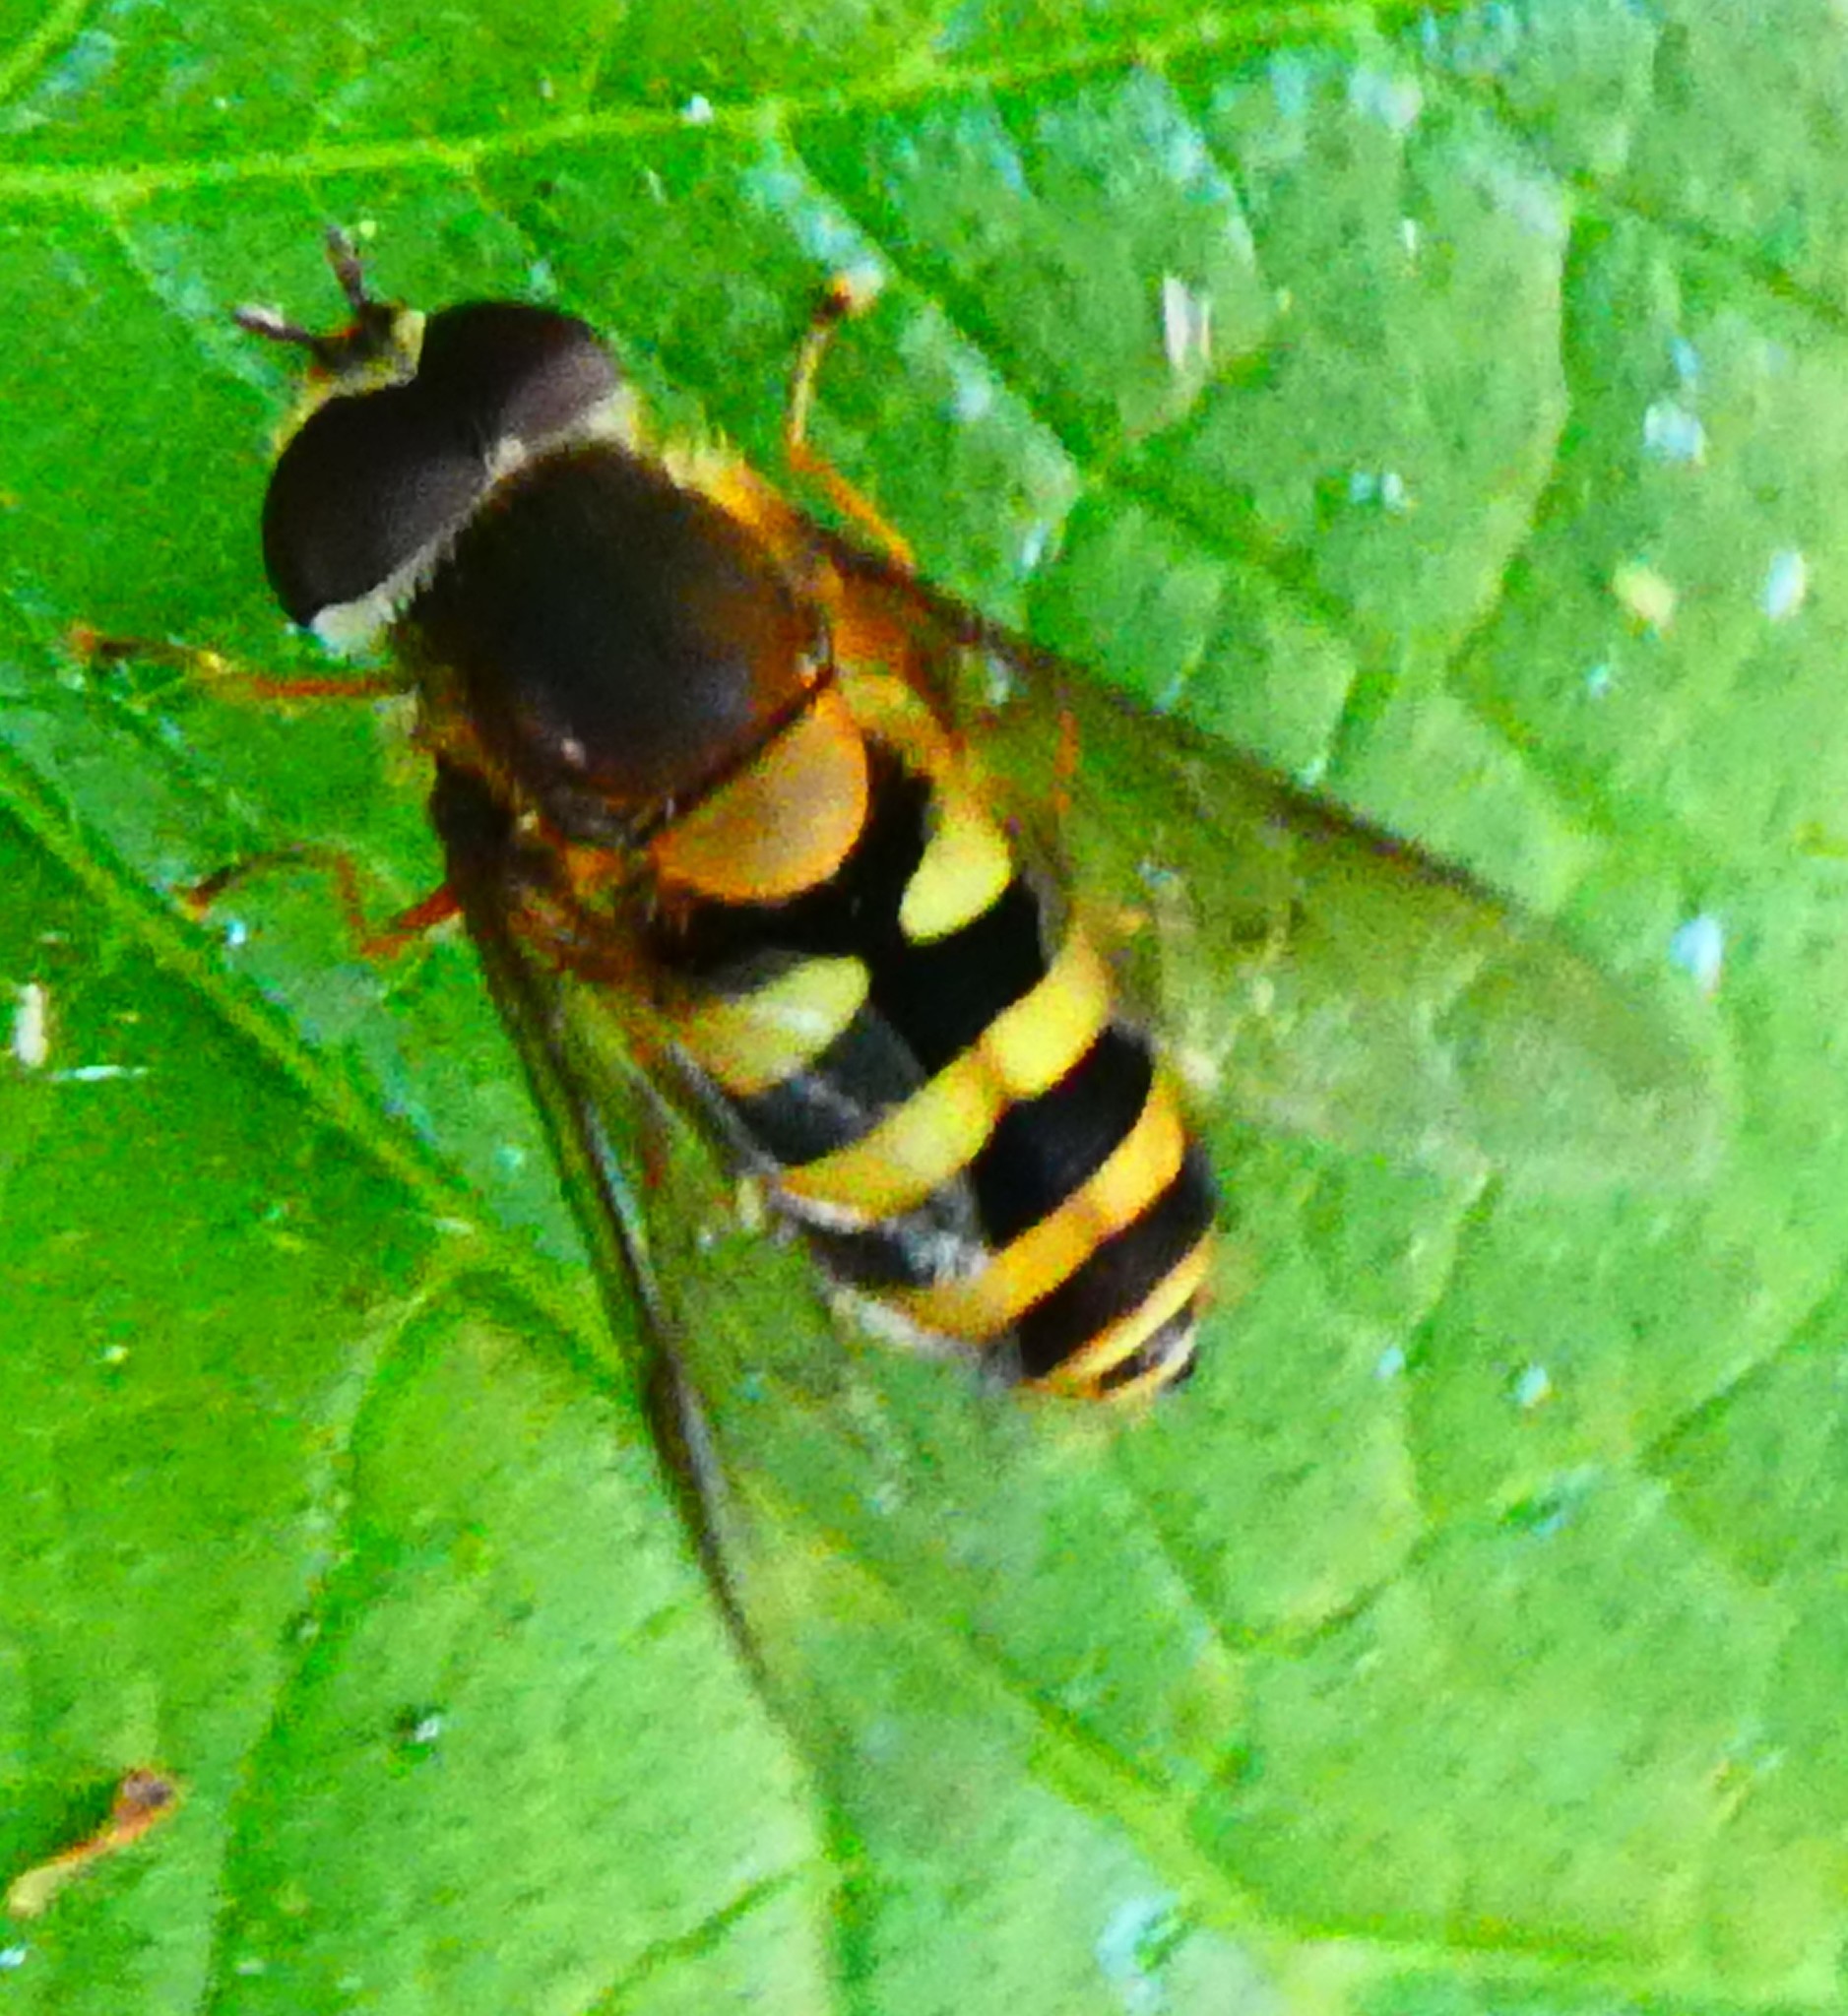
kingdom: Animalia
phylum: Arthropoda
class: Insecta
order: Diptera
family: Syrphidae
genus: Syrphus
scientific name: Syrphus
